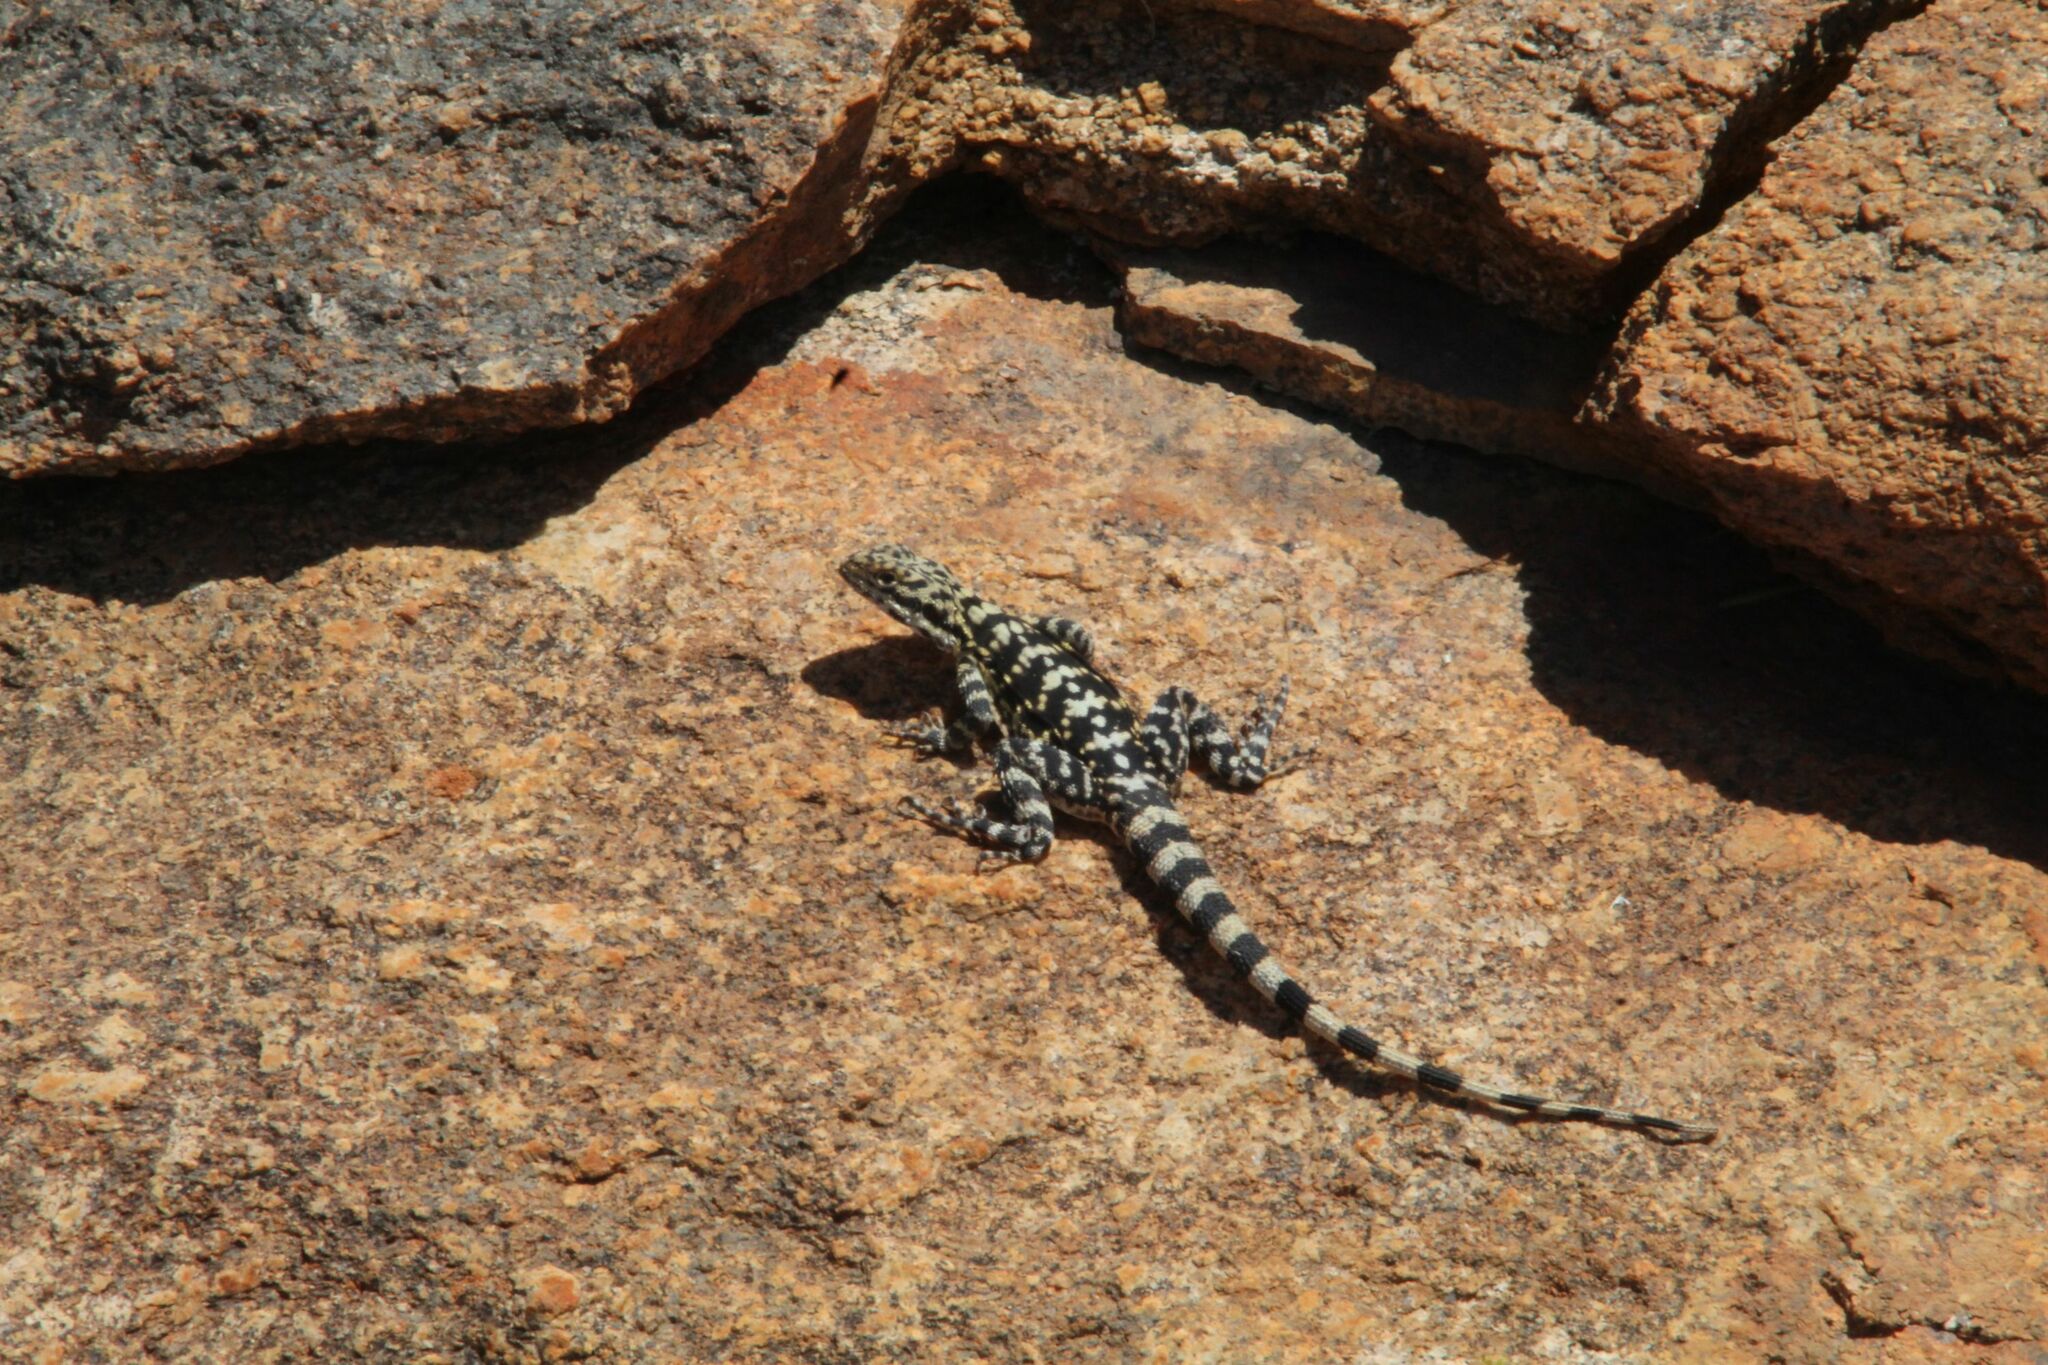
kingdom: Animalia
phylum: Chordata
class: Squamata
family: Agamidae
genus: Ctenophorus
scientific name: Ctenophorus ornatus
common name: Ornate crevice-dragon
